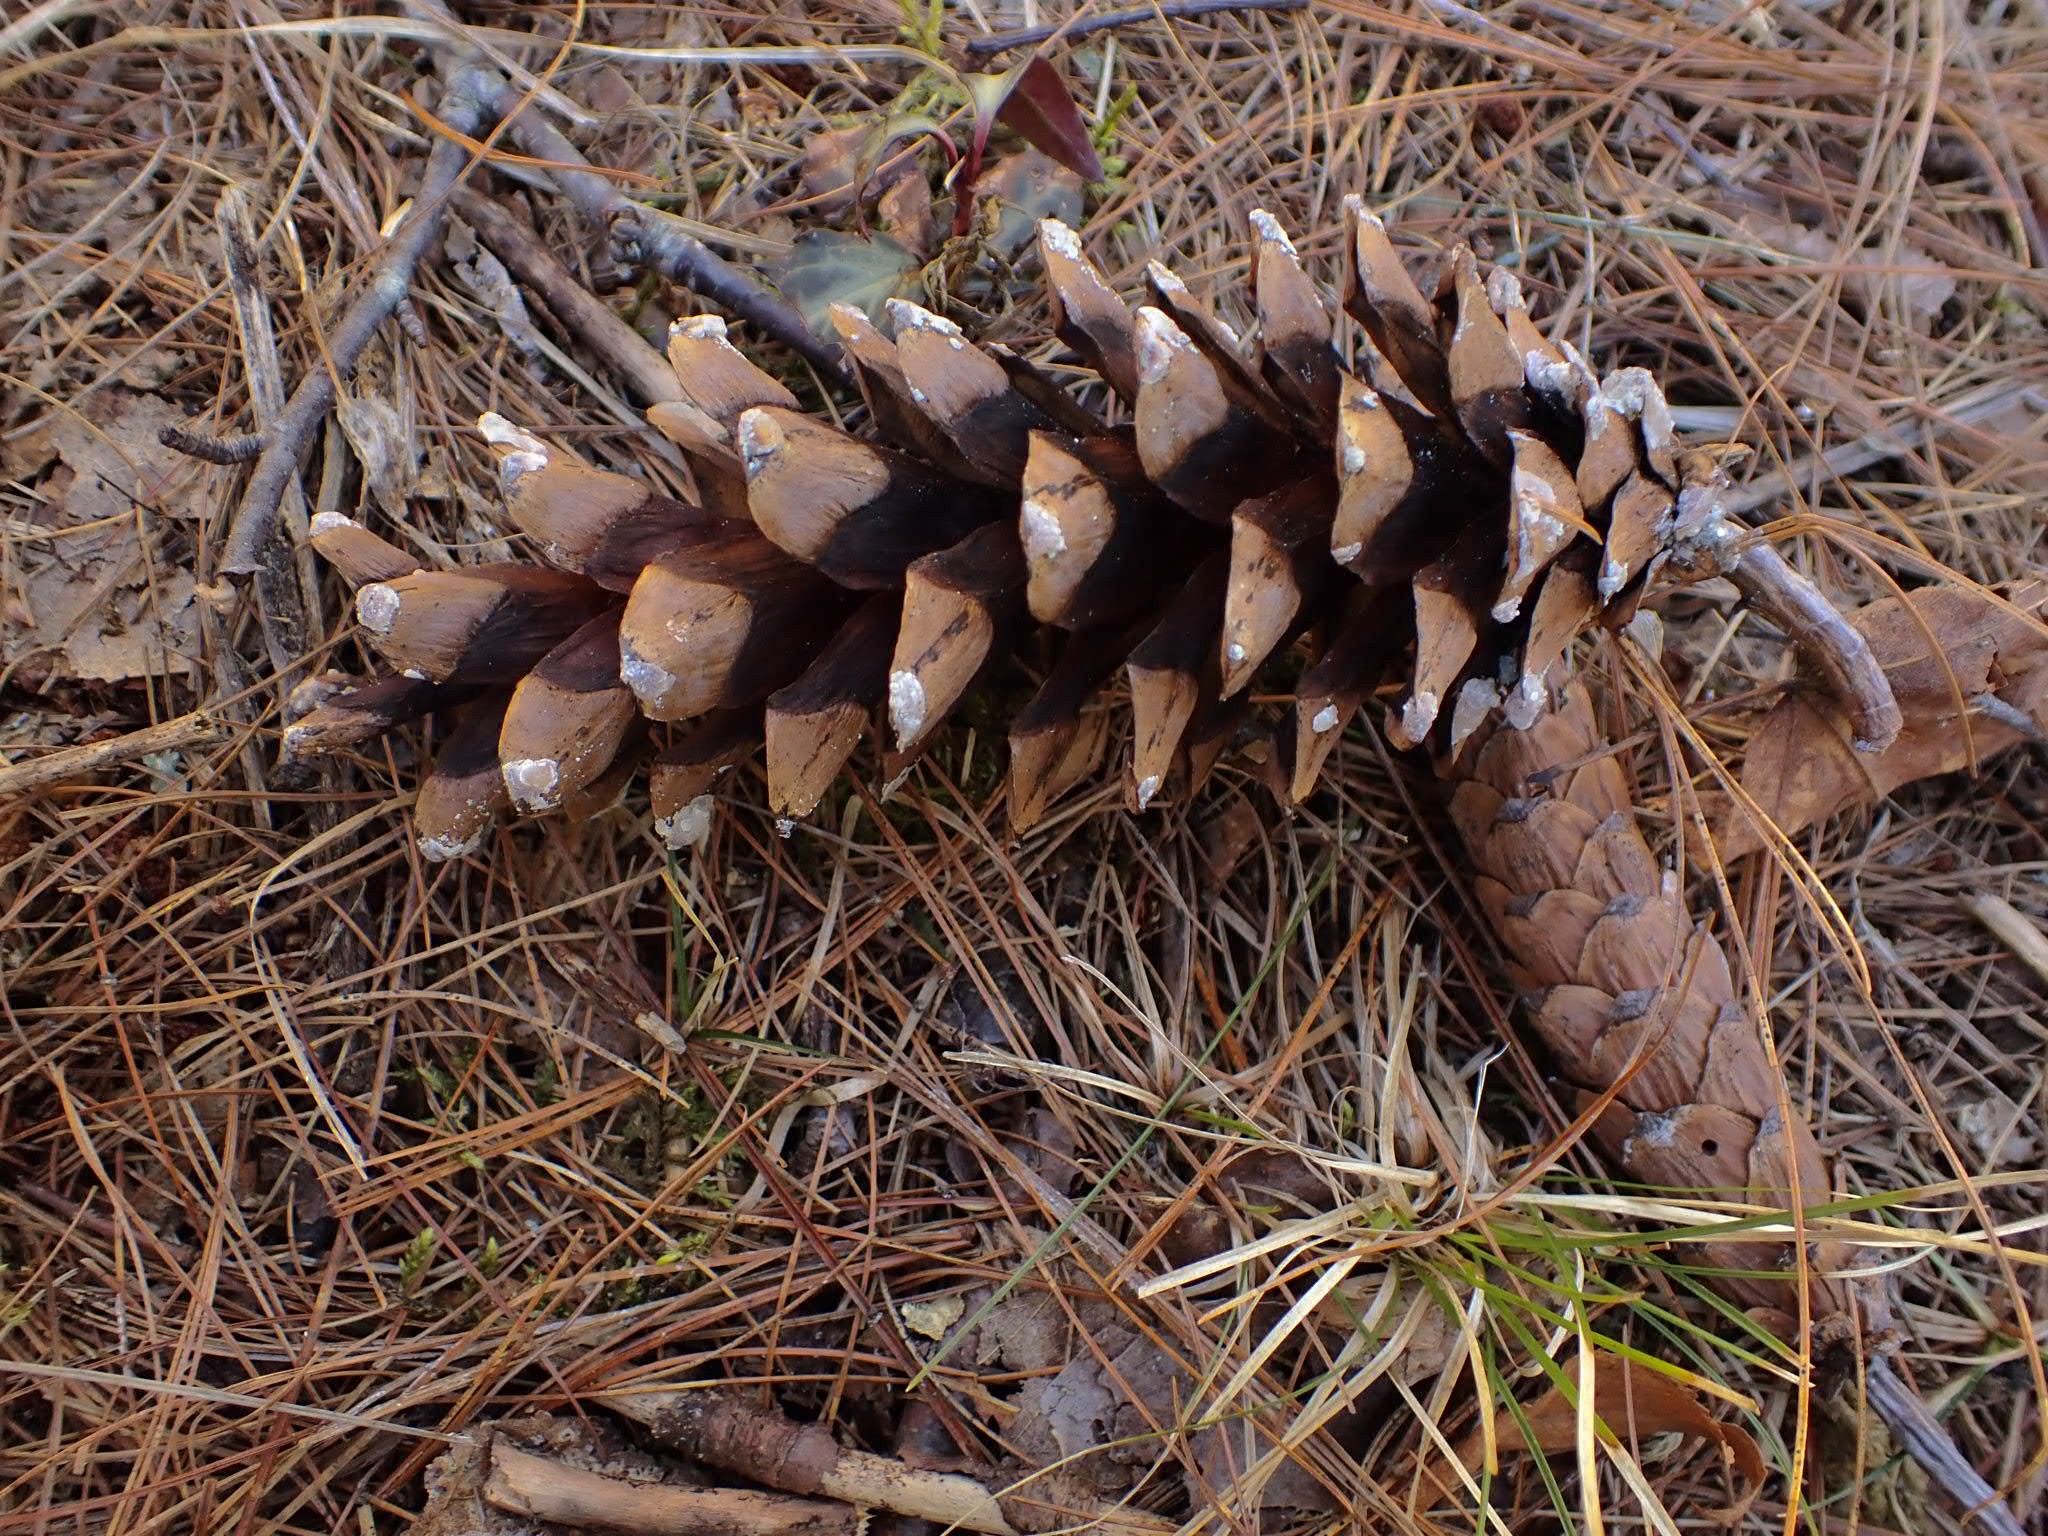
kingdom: Plantae
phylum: Tracheophyta
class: Pinopsida
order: Pinales
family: Pinaceae
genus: Pinus
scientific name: Pinus strobus
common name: Weymouth pine
